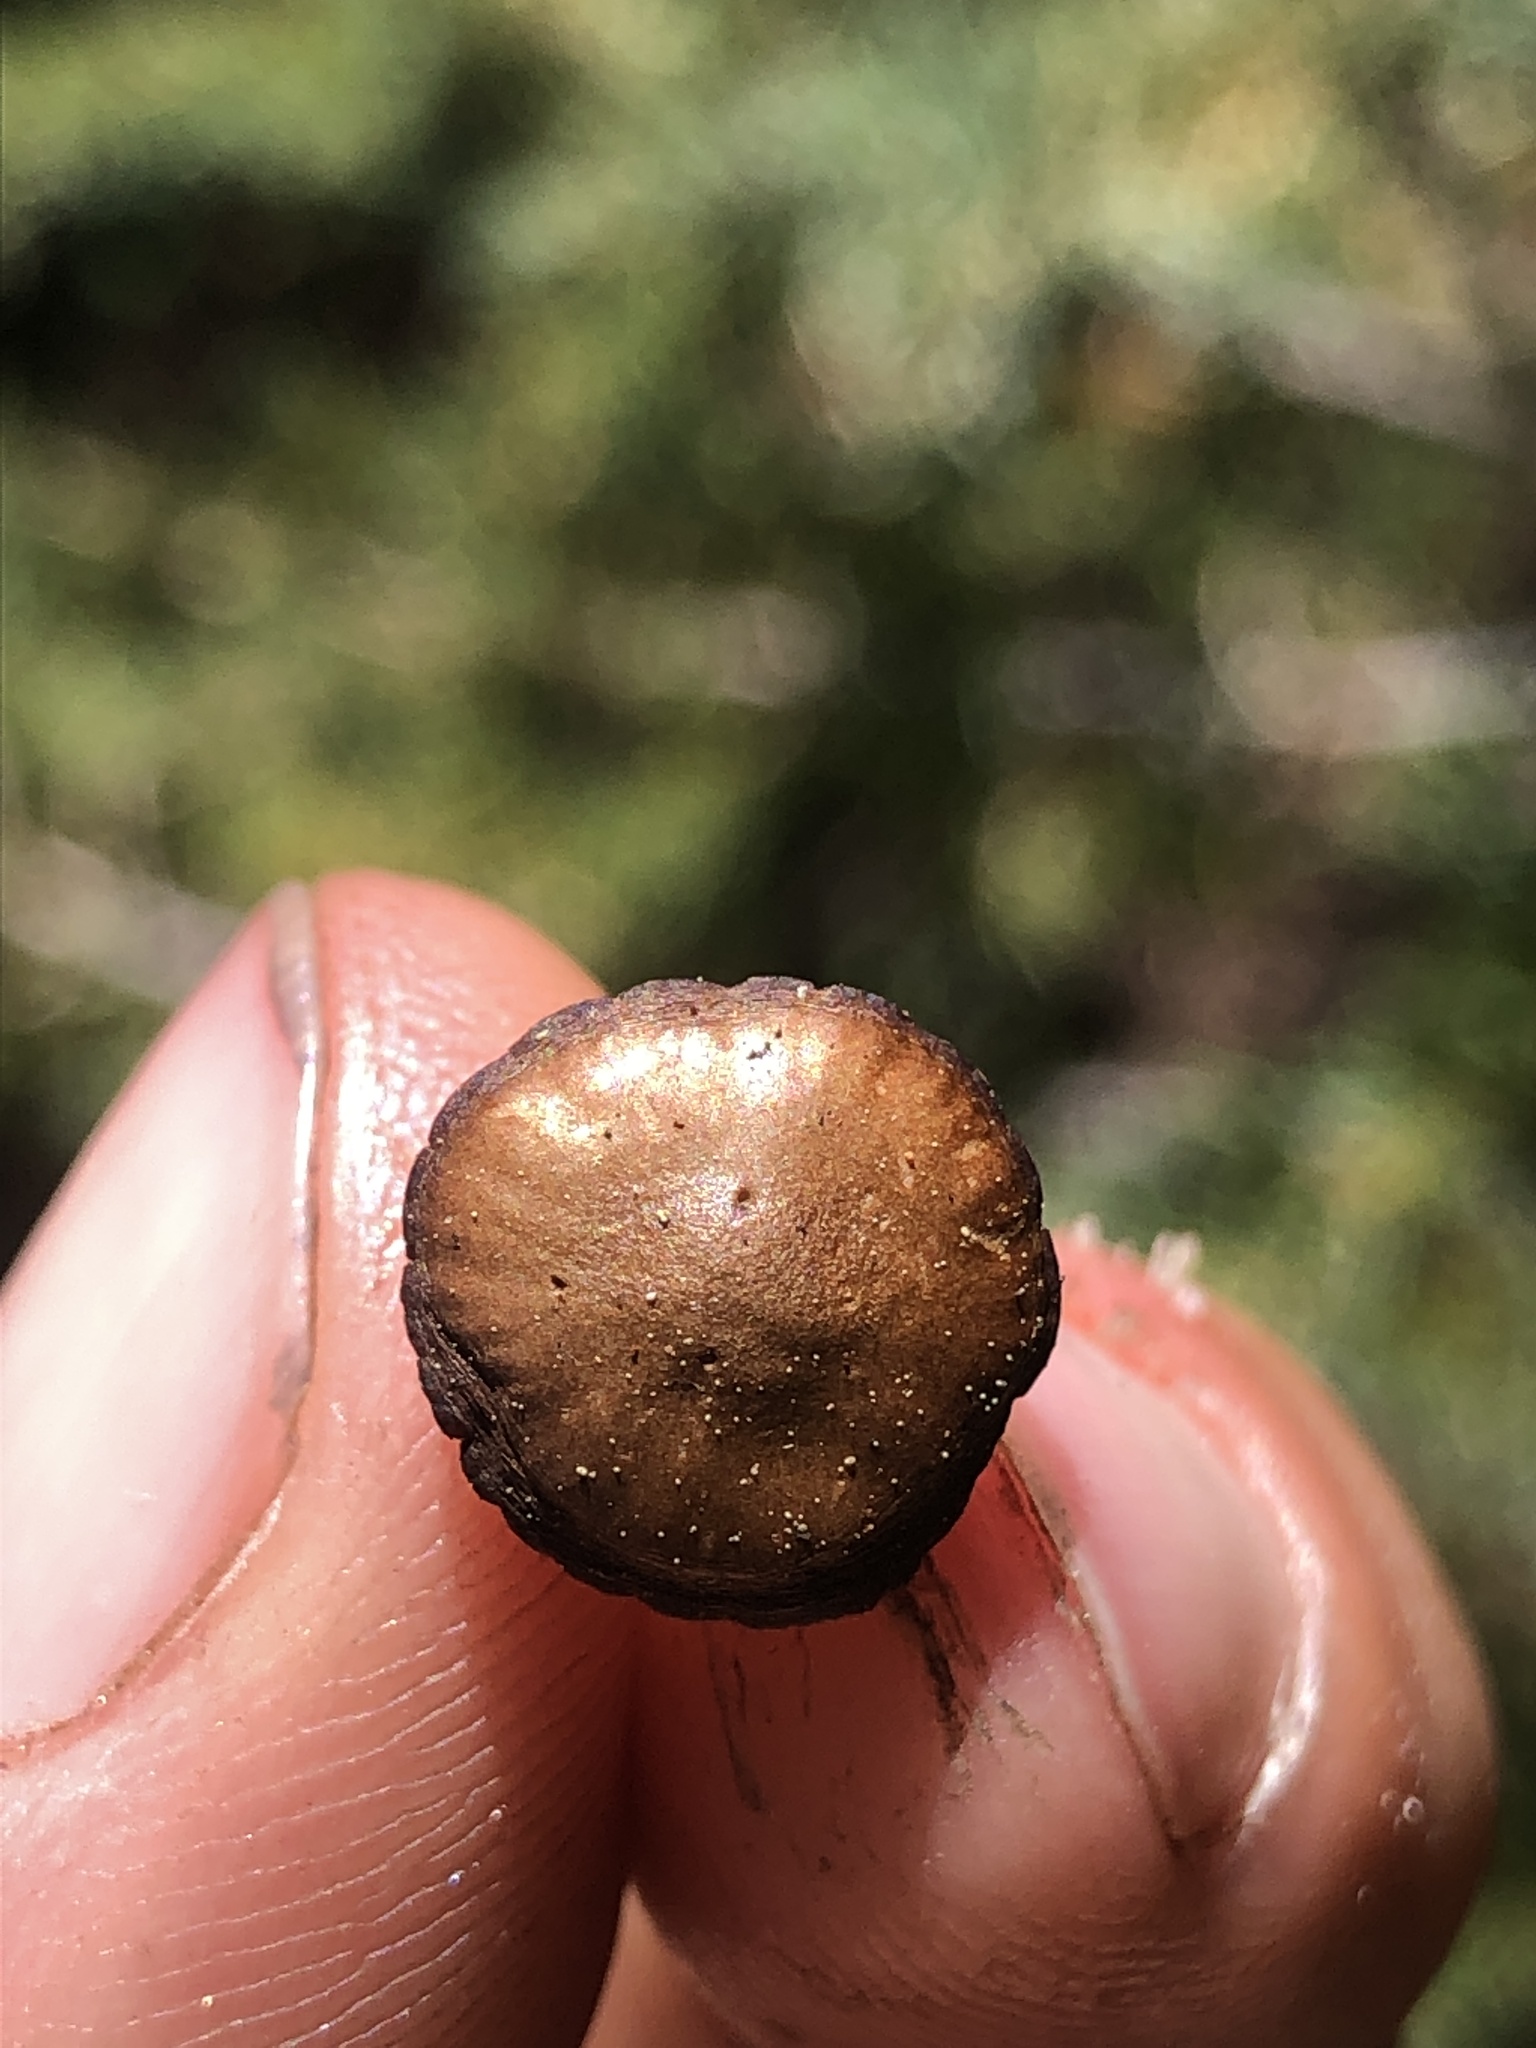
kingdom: Fungi
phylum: Basidiomycota
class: Agaricomycetes
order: Agaricales
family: Strophariaceae
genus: Deconica
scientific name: Deconica montana
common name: Mountain moss deconica
